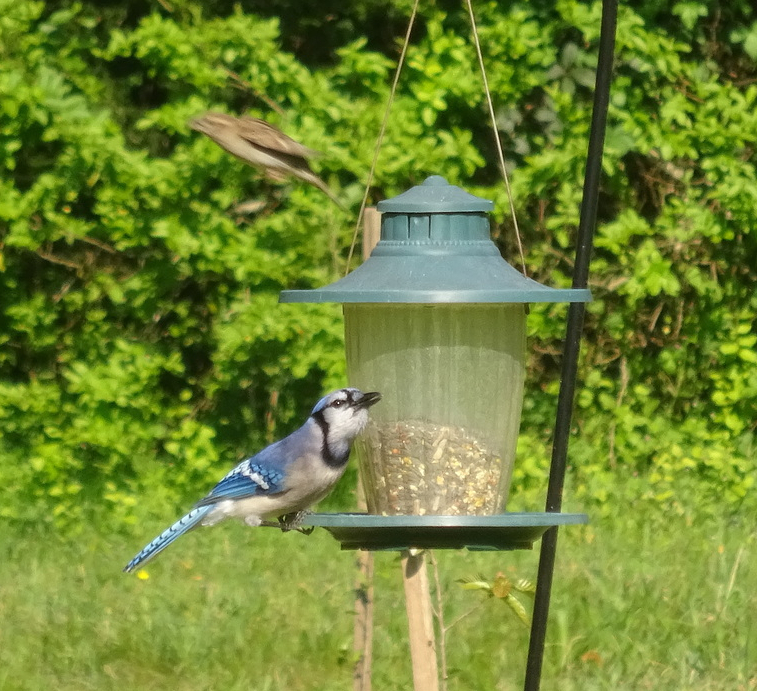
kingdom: Animalia
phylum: Chordata
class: Aves
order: Passeriformes
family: Corvidae
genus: Cyanocitta
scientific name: Cyanocitta cristata
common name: Blue jay
